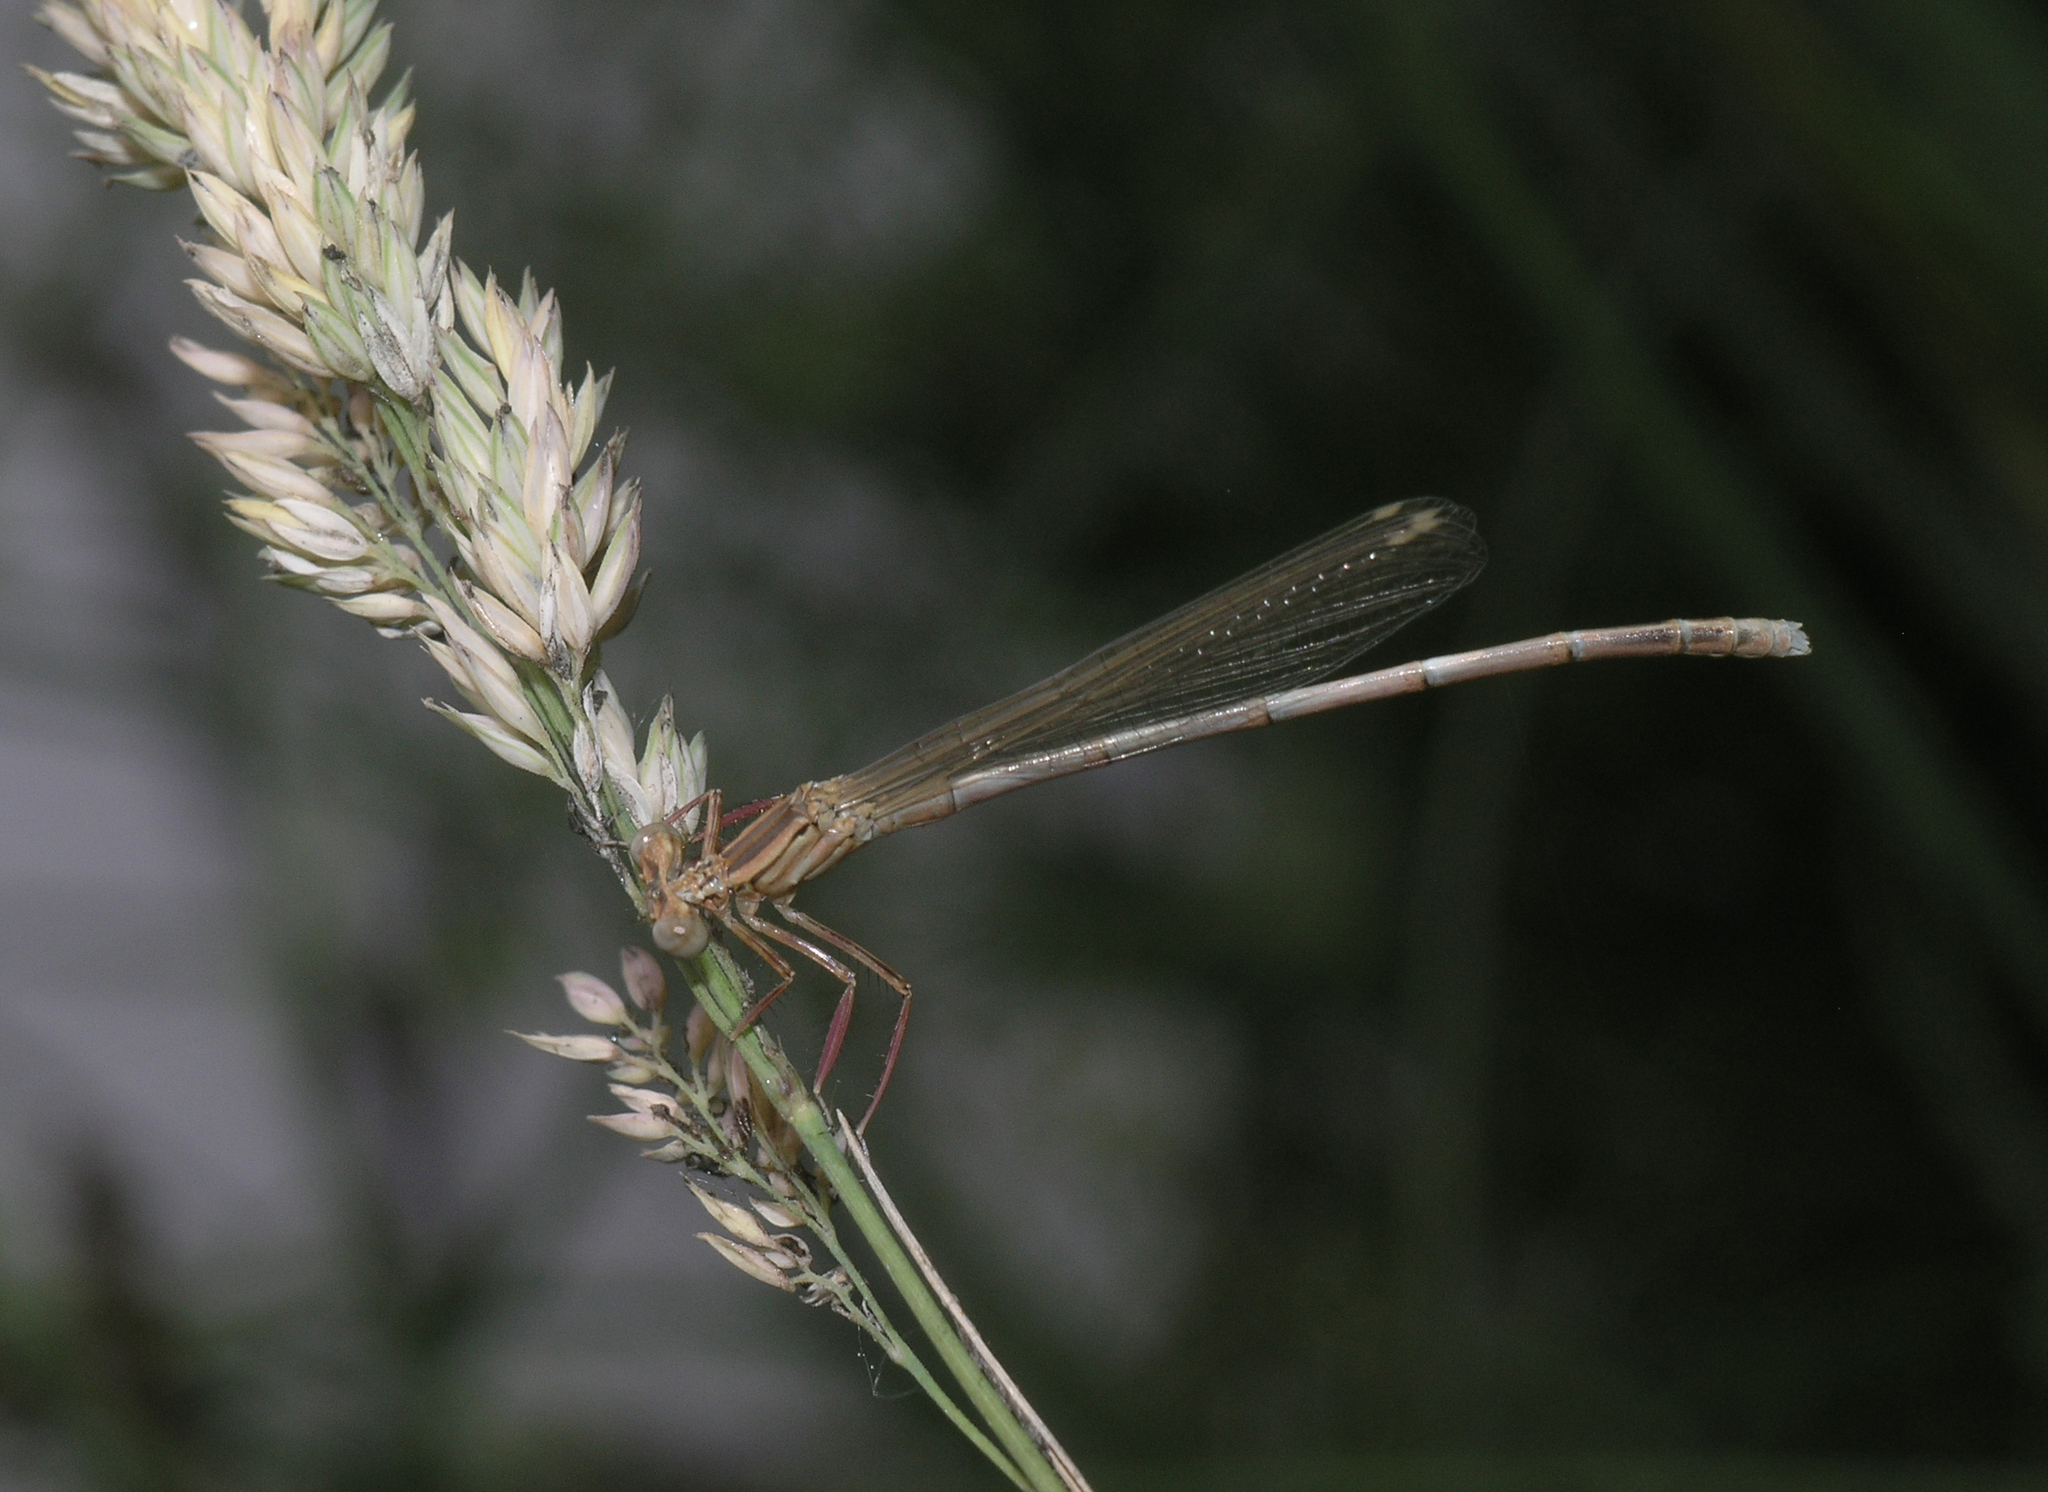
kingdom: Animalia
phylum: Arthropoda
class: Insecta
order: Odonata
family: Platycnemididae
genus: Platycnemis
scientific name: Platycnemis pennipes
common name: White-legged damselfly
